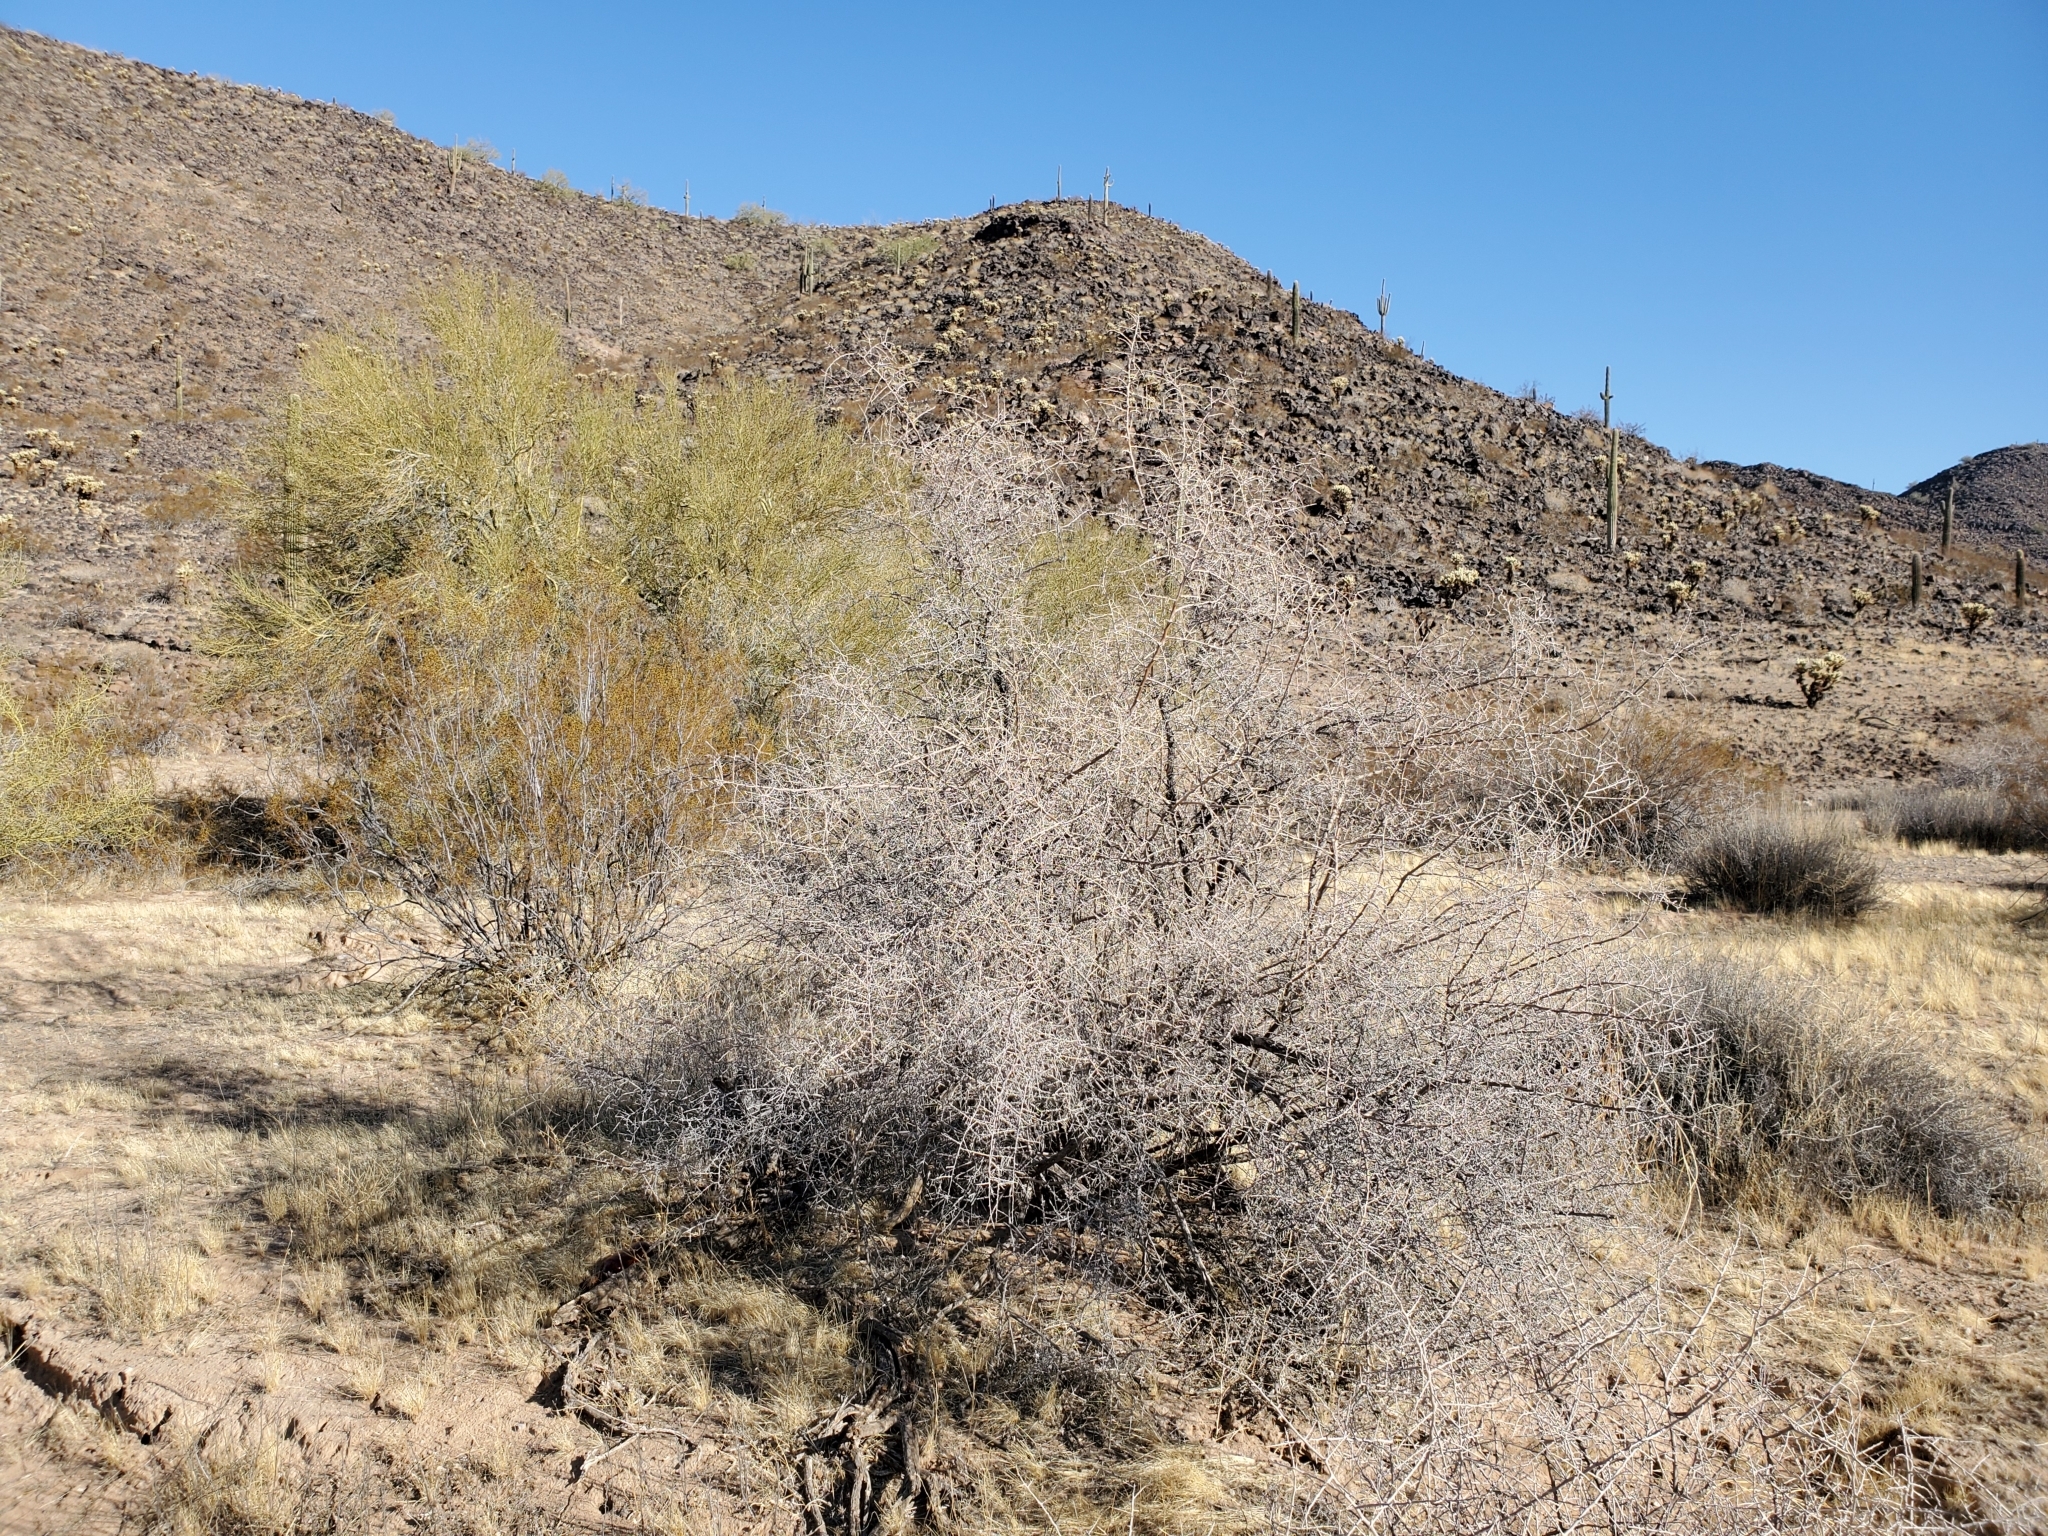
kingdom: Plantae
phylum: Tracheophyta
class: Magnoliopsida
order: Solanales
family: Solanaceae
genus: Lycium
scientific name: Lycium andersonii
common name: Water-jacket
